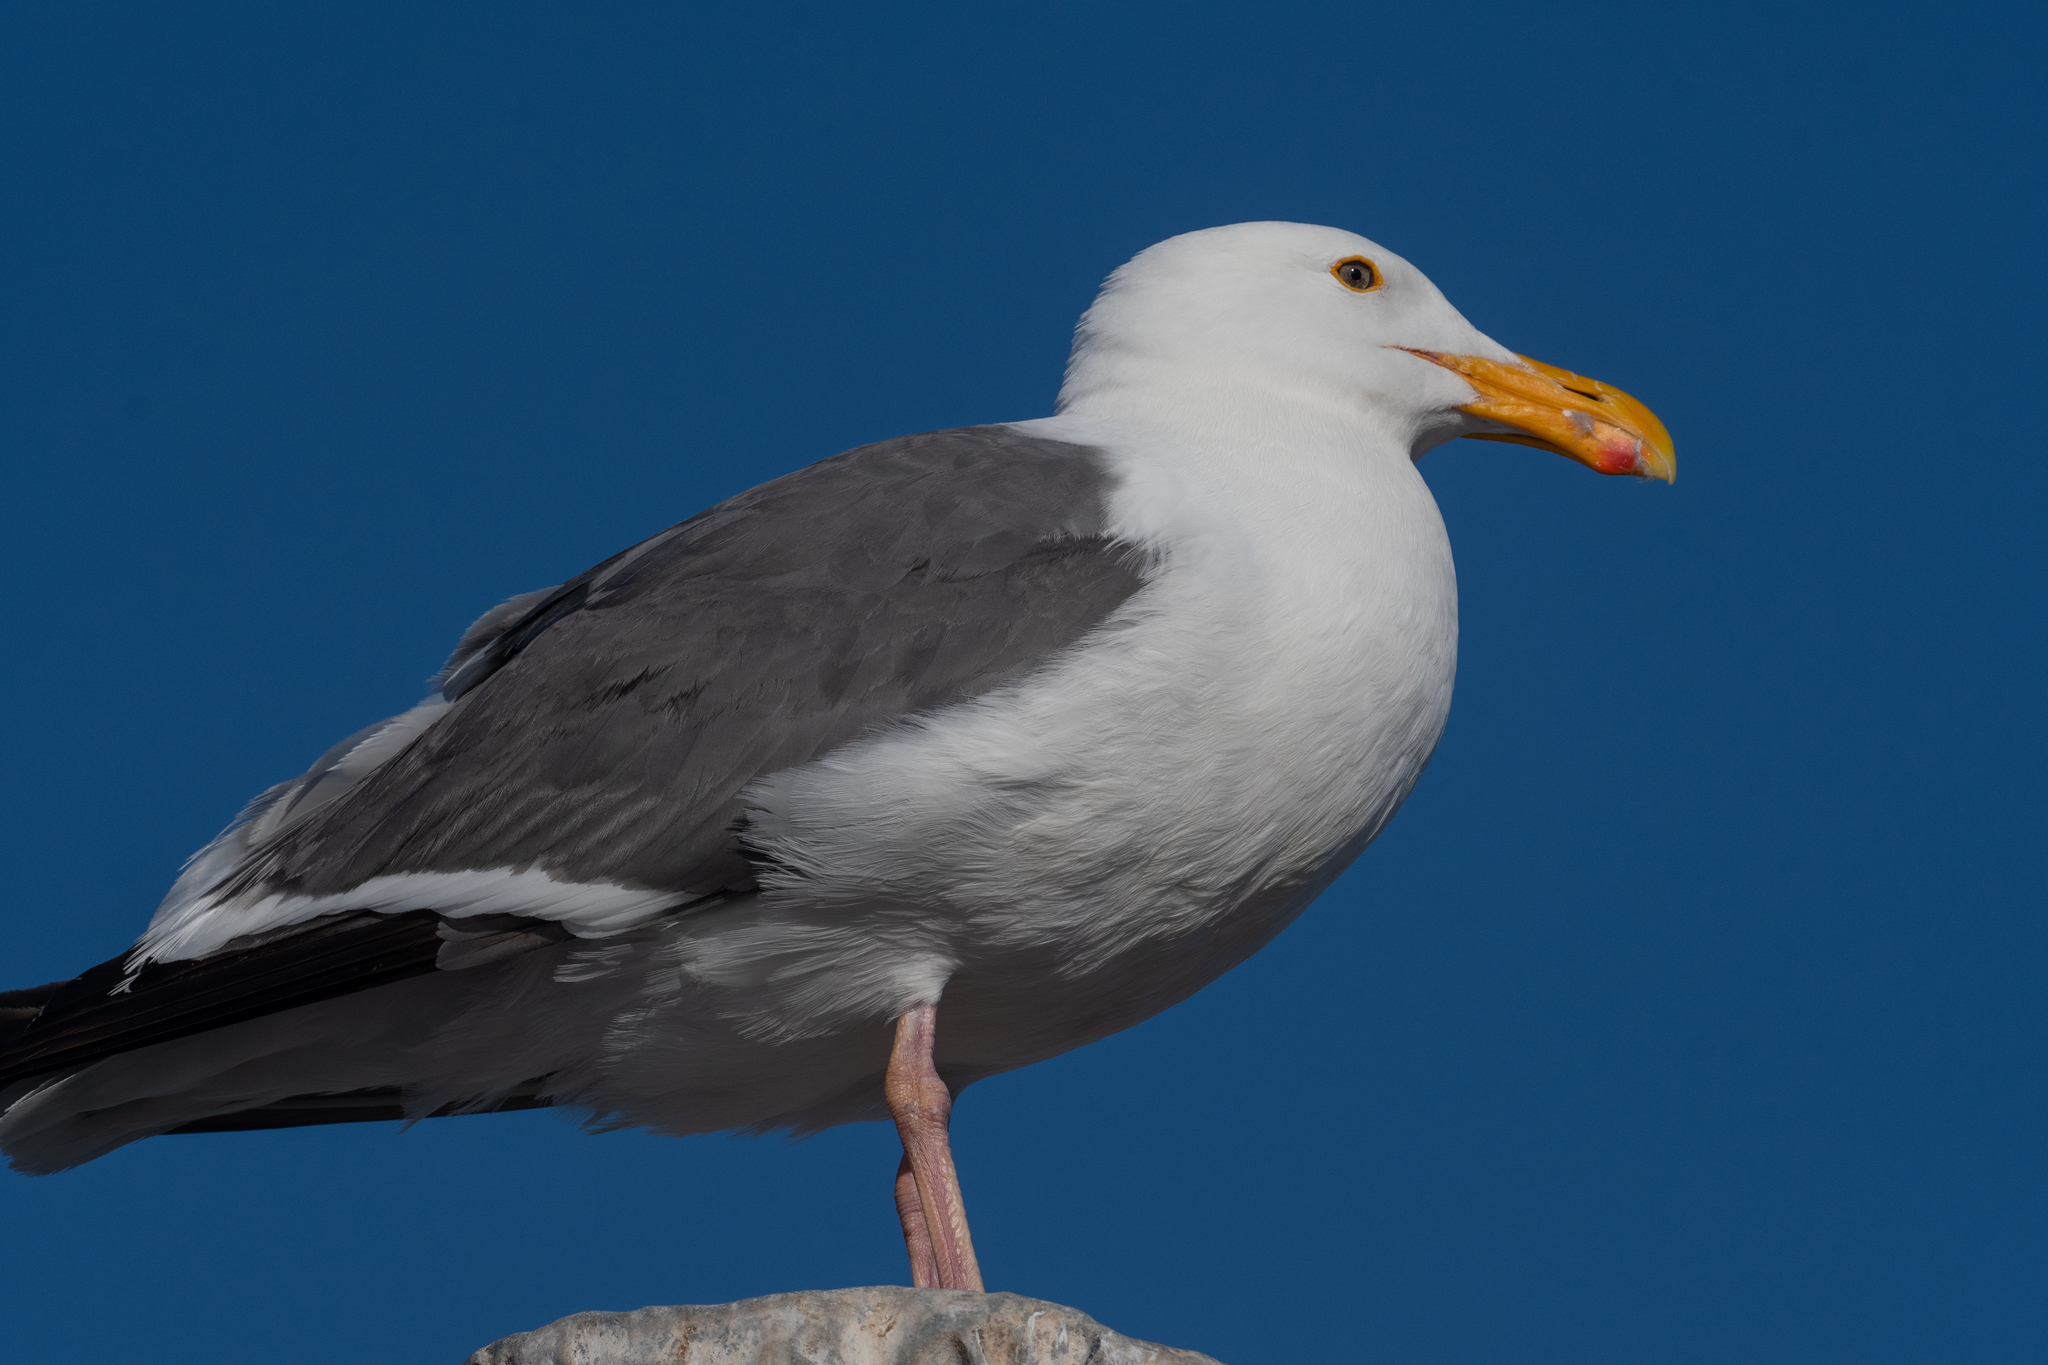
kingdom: Animalia
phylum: Chordata
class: Aves
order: Charadriiformes
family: Laridae
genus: Larus
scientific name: Larus occidentalis
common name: Western gull
